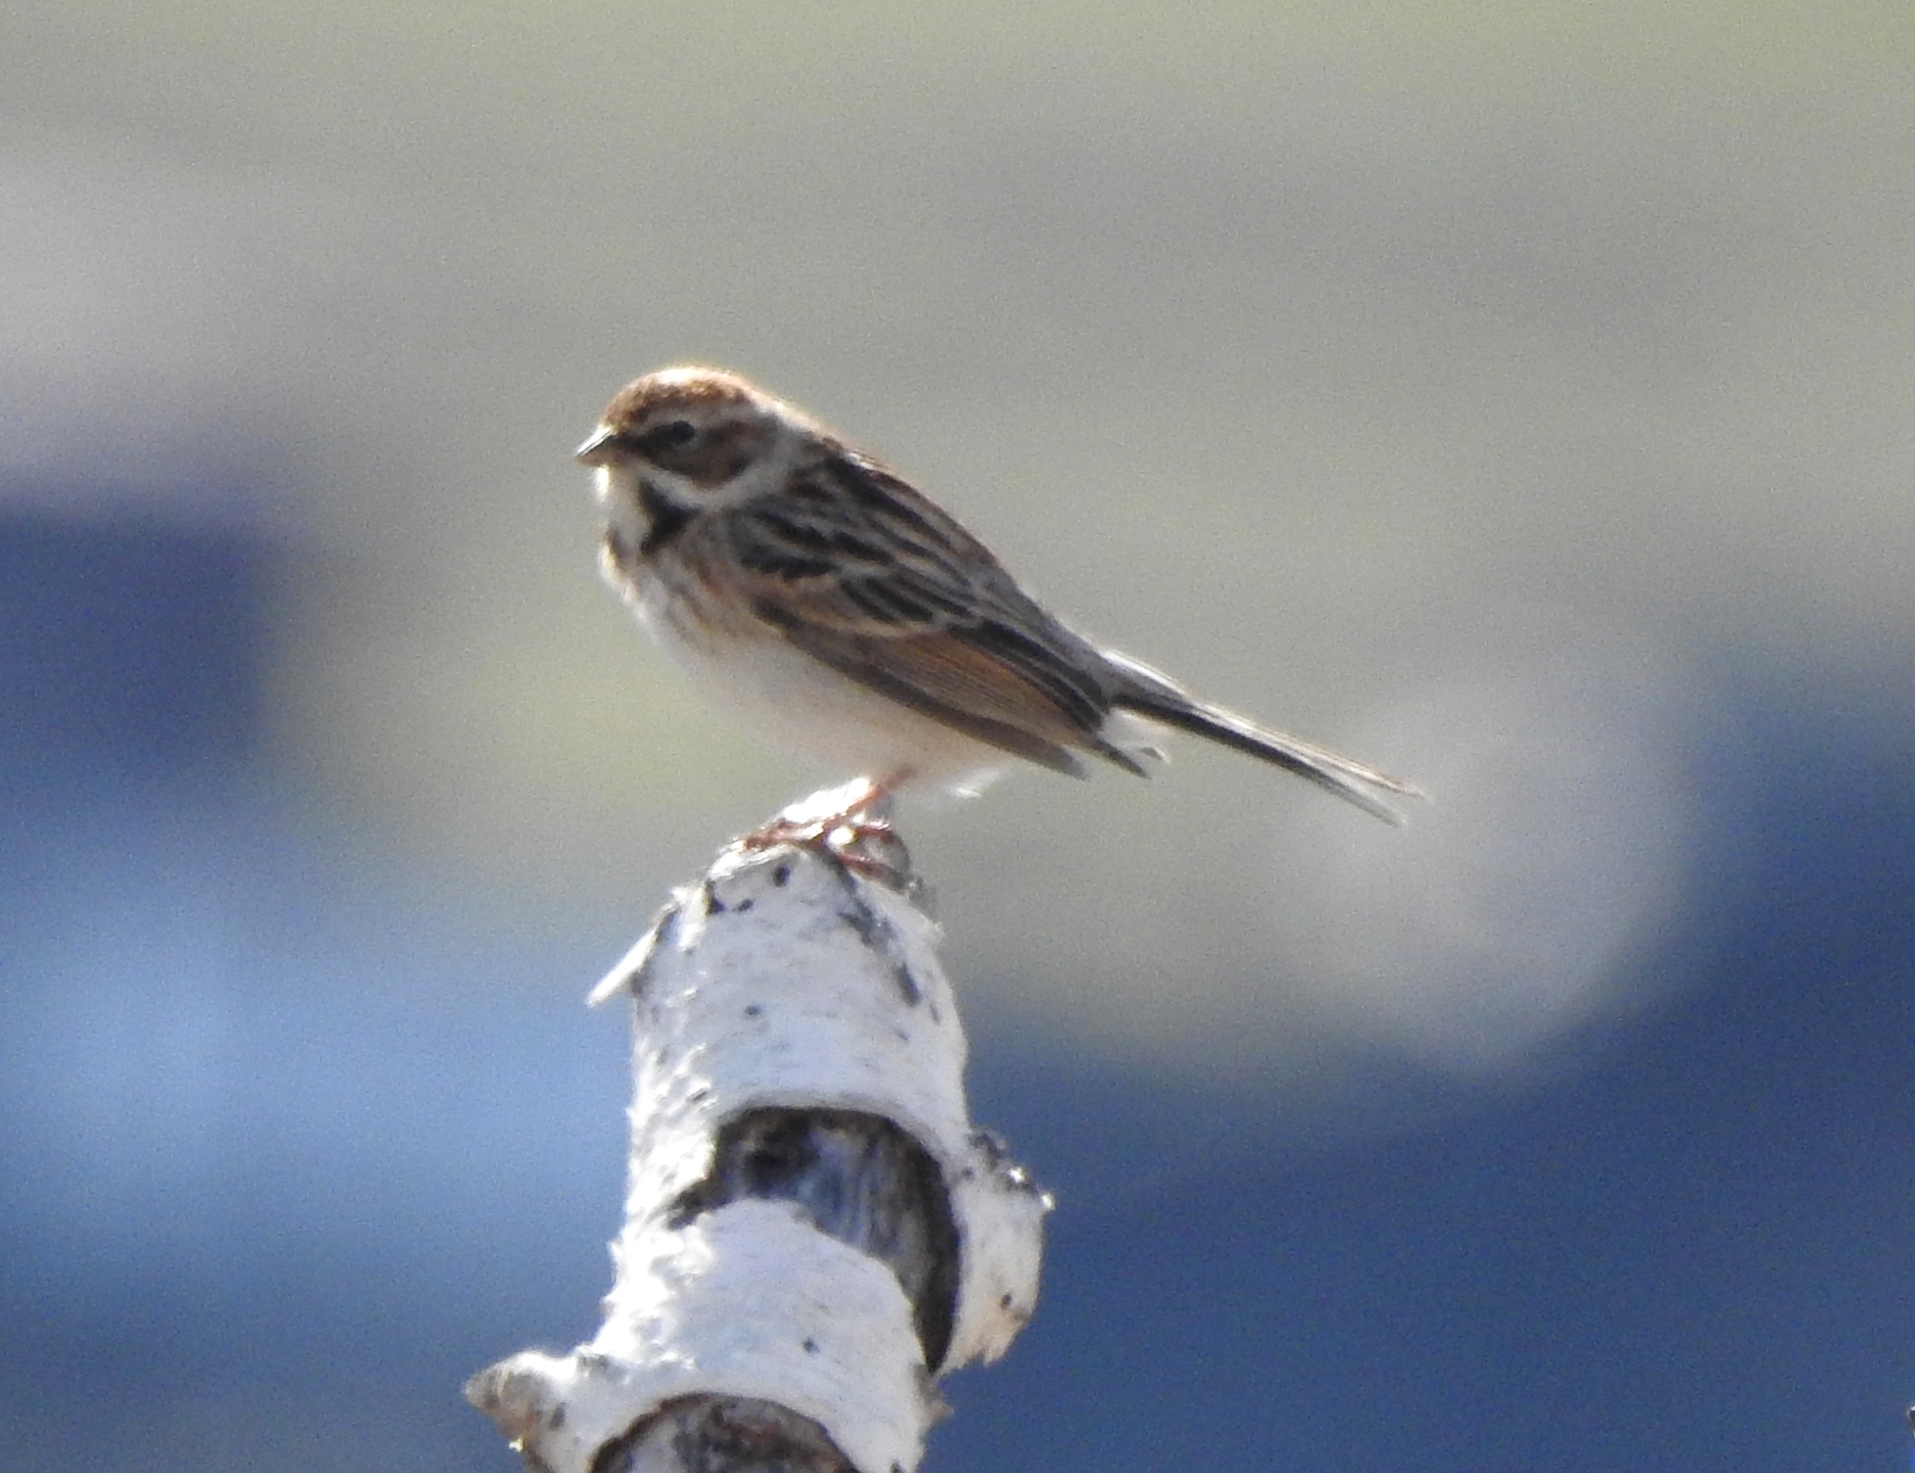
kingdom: Animalia
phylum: Chordata
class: Aves
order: Passeriformes
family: Emberizidae
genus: Emberiza
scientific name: Emberiza pallasi
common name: Pallas's reed bunting
